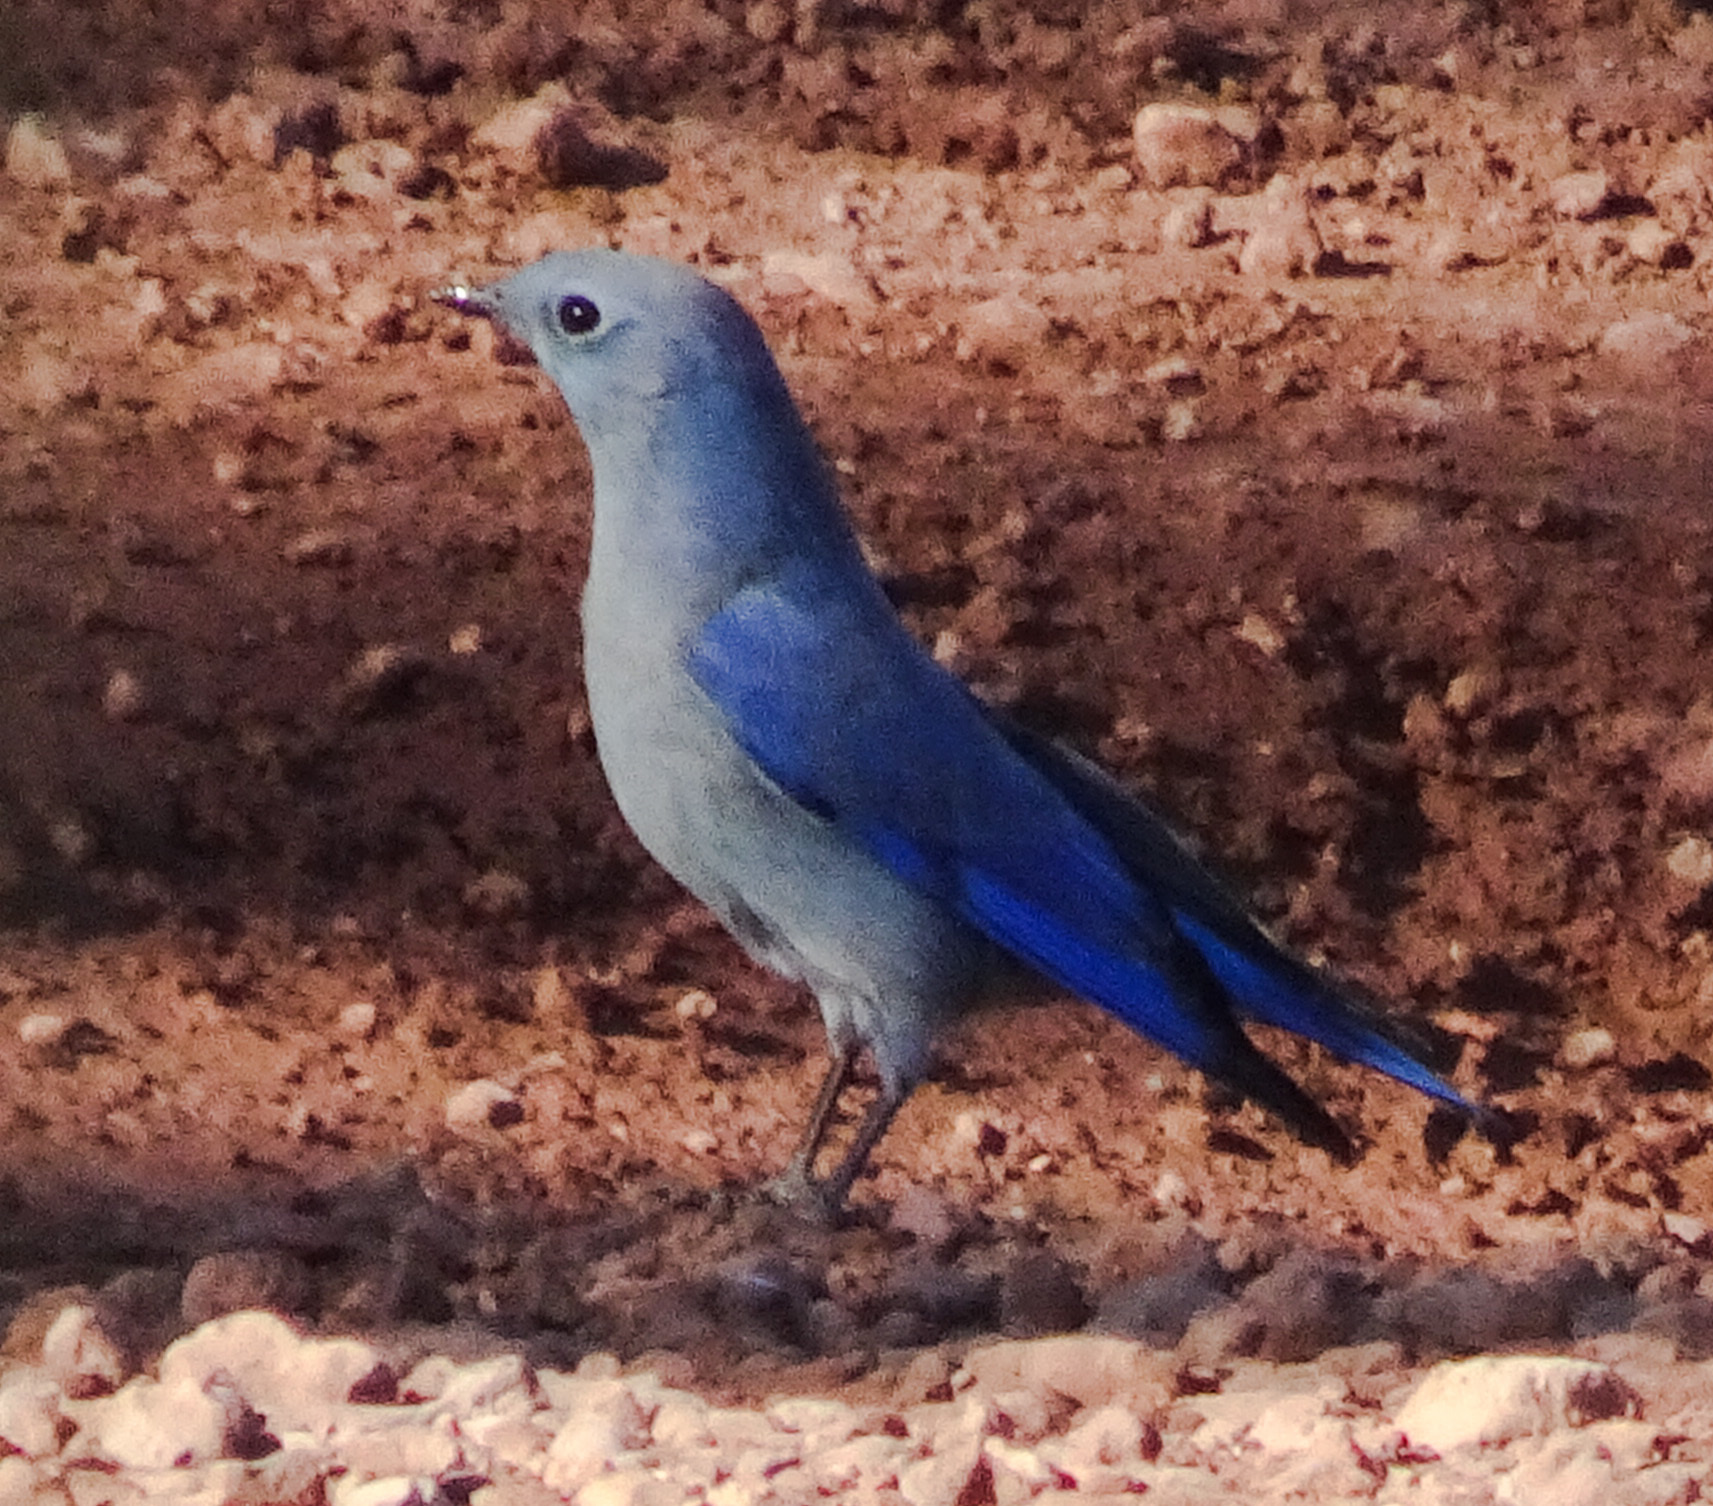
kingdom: Animalia
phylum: Chordata
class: Aves
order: Passeriformes
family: Turdidae
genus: Sialia
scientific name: Sialia currucoides
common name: Mountain bluebird
